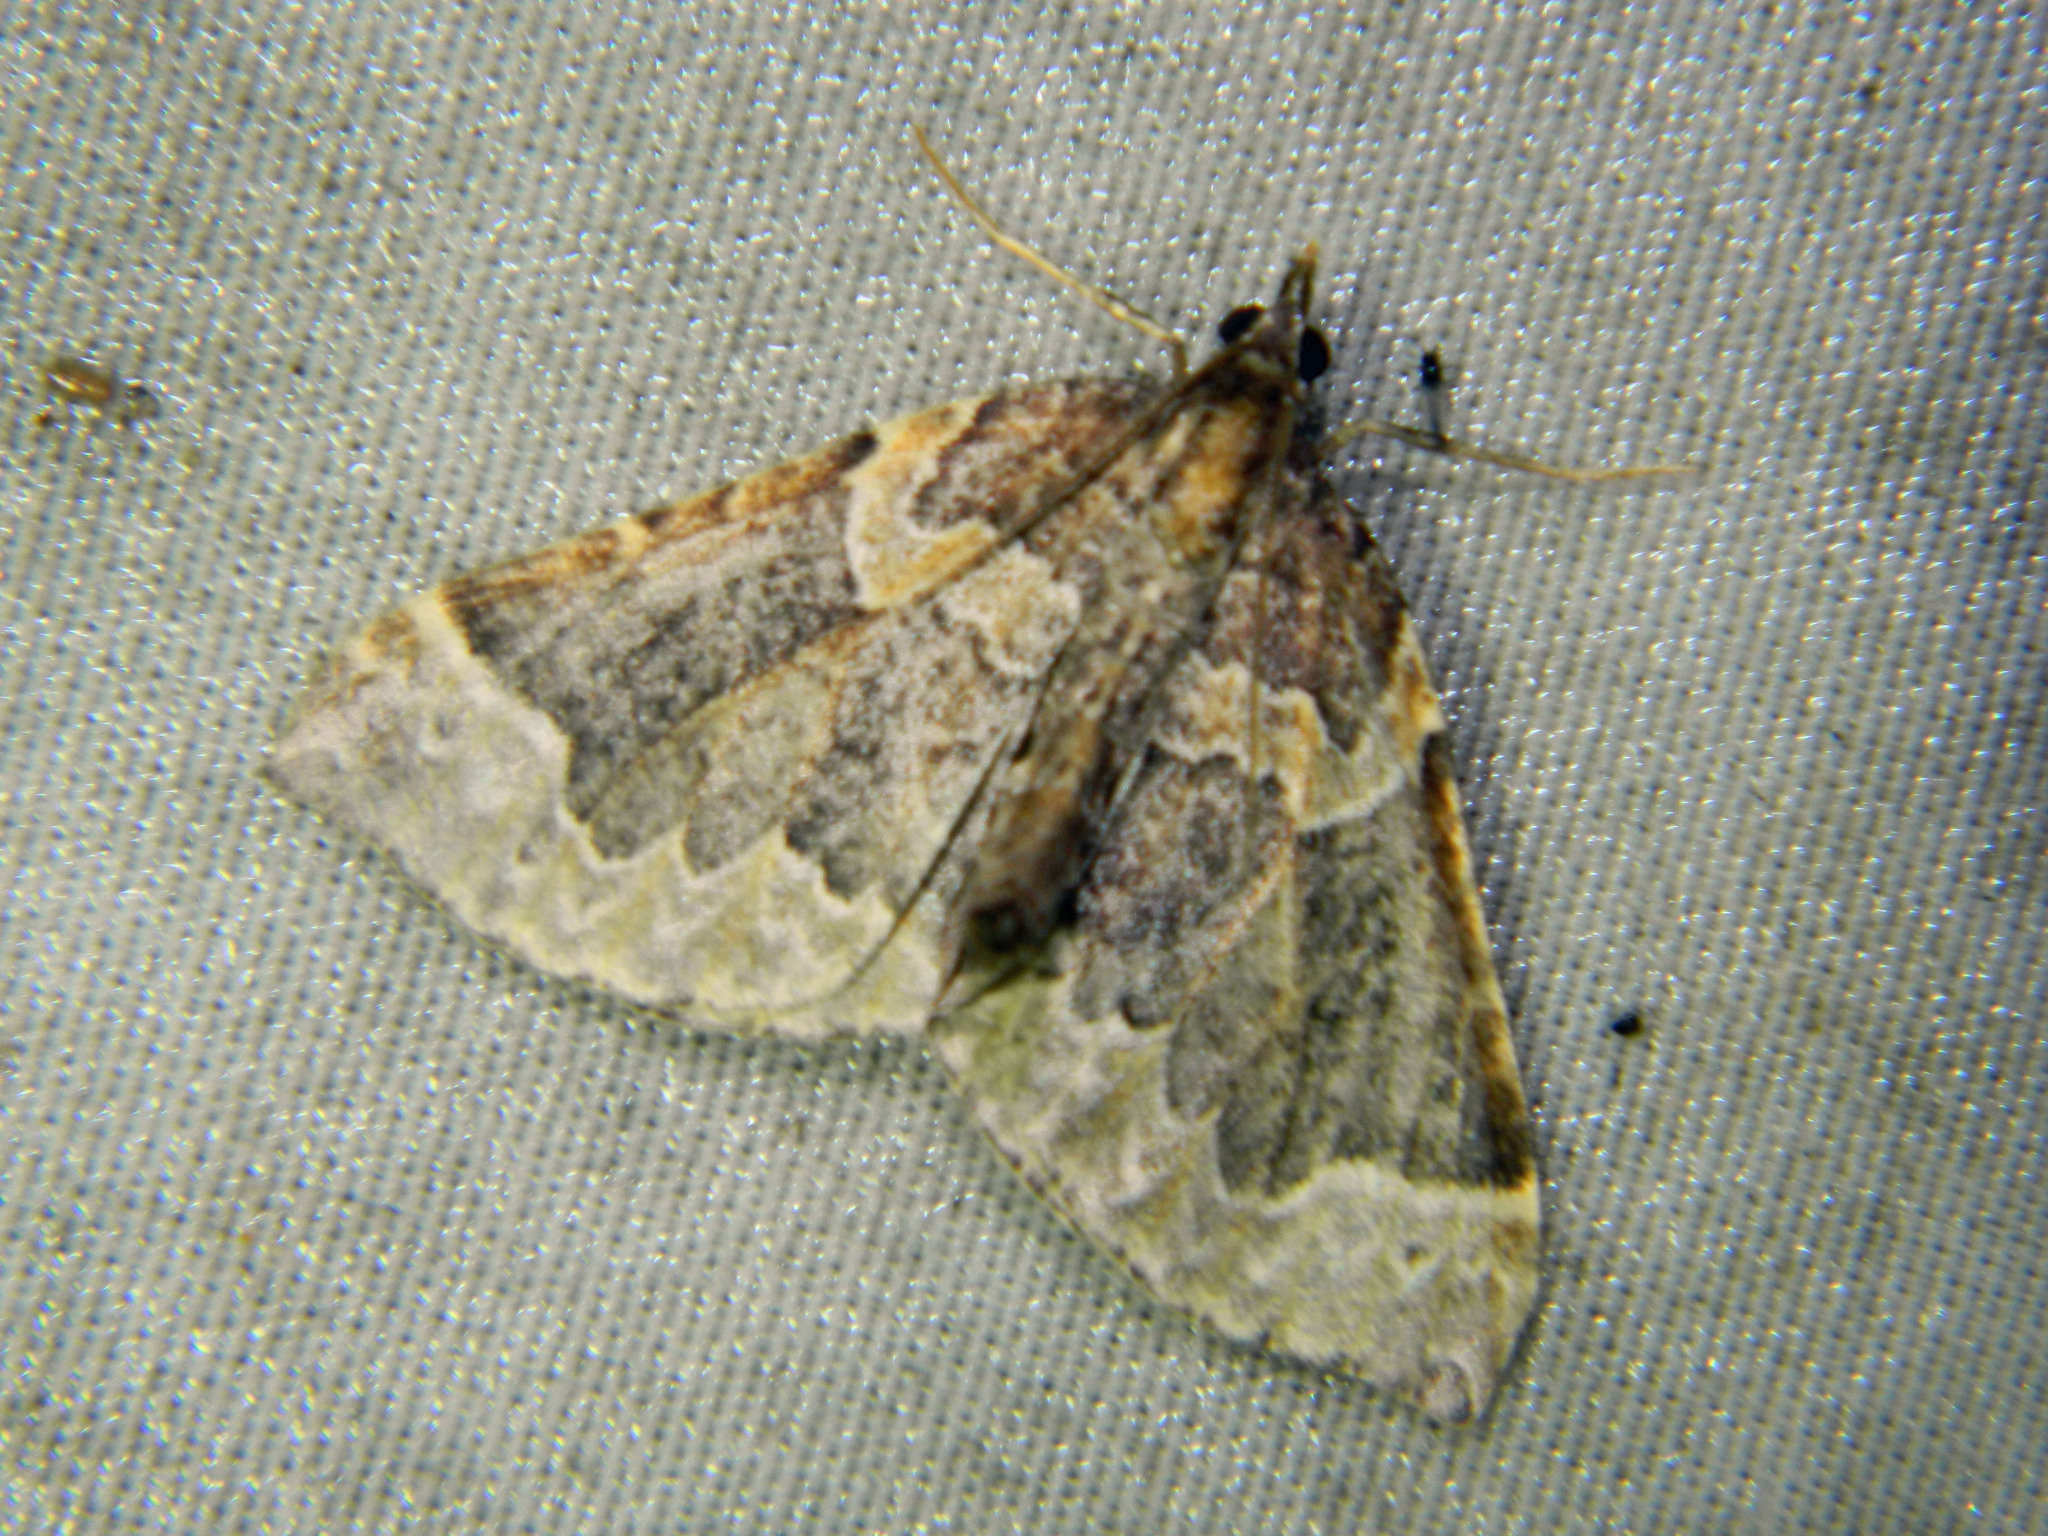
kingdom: Animalia
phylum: Arthropoda
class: Insecta
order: Lepidoptera
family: Geometridae
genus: Eulithis
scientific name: Eulithis flavibrunneata
